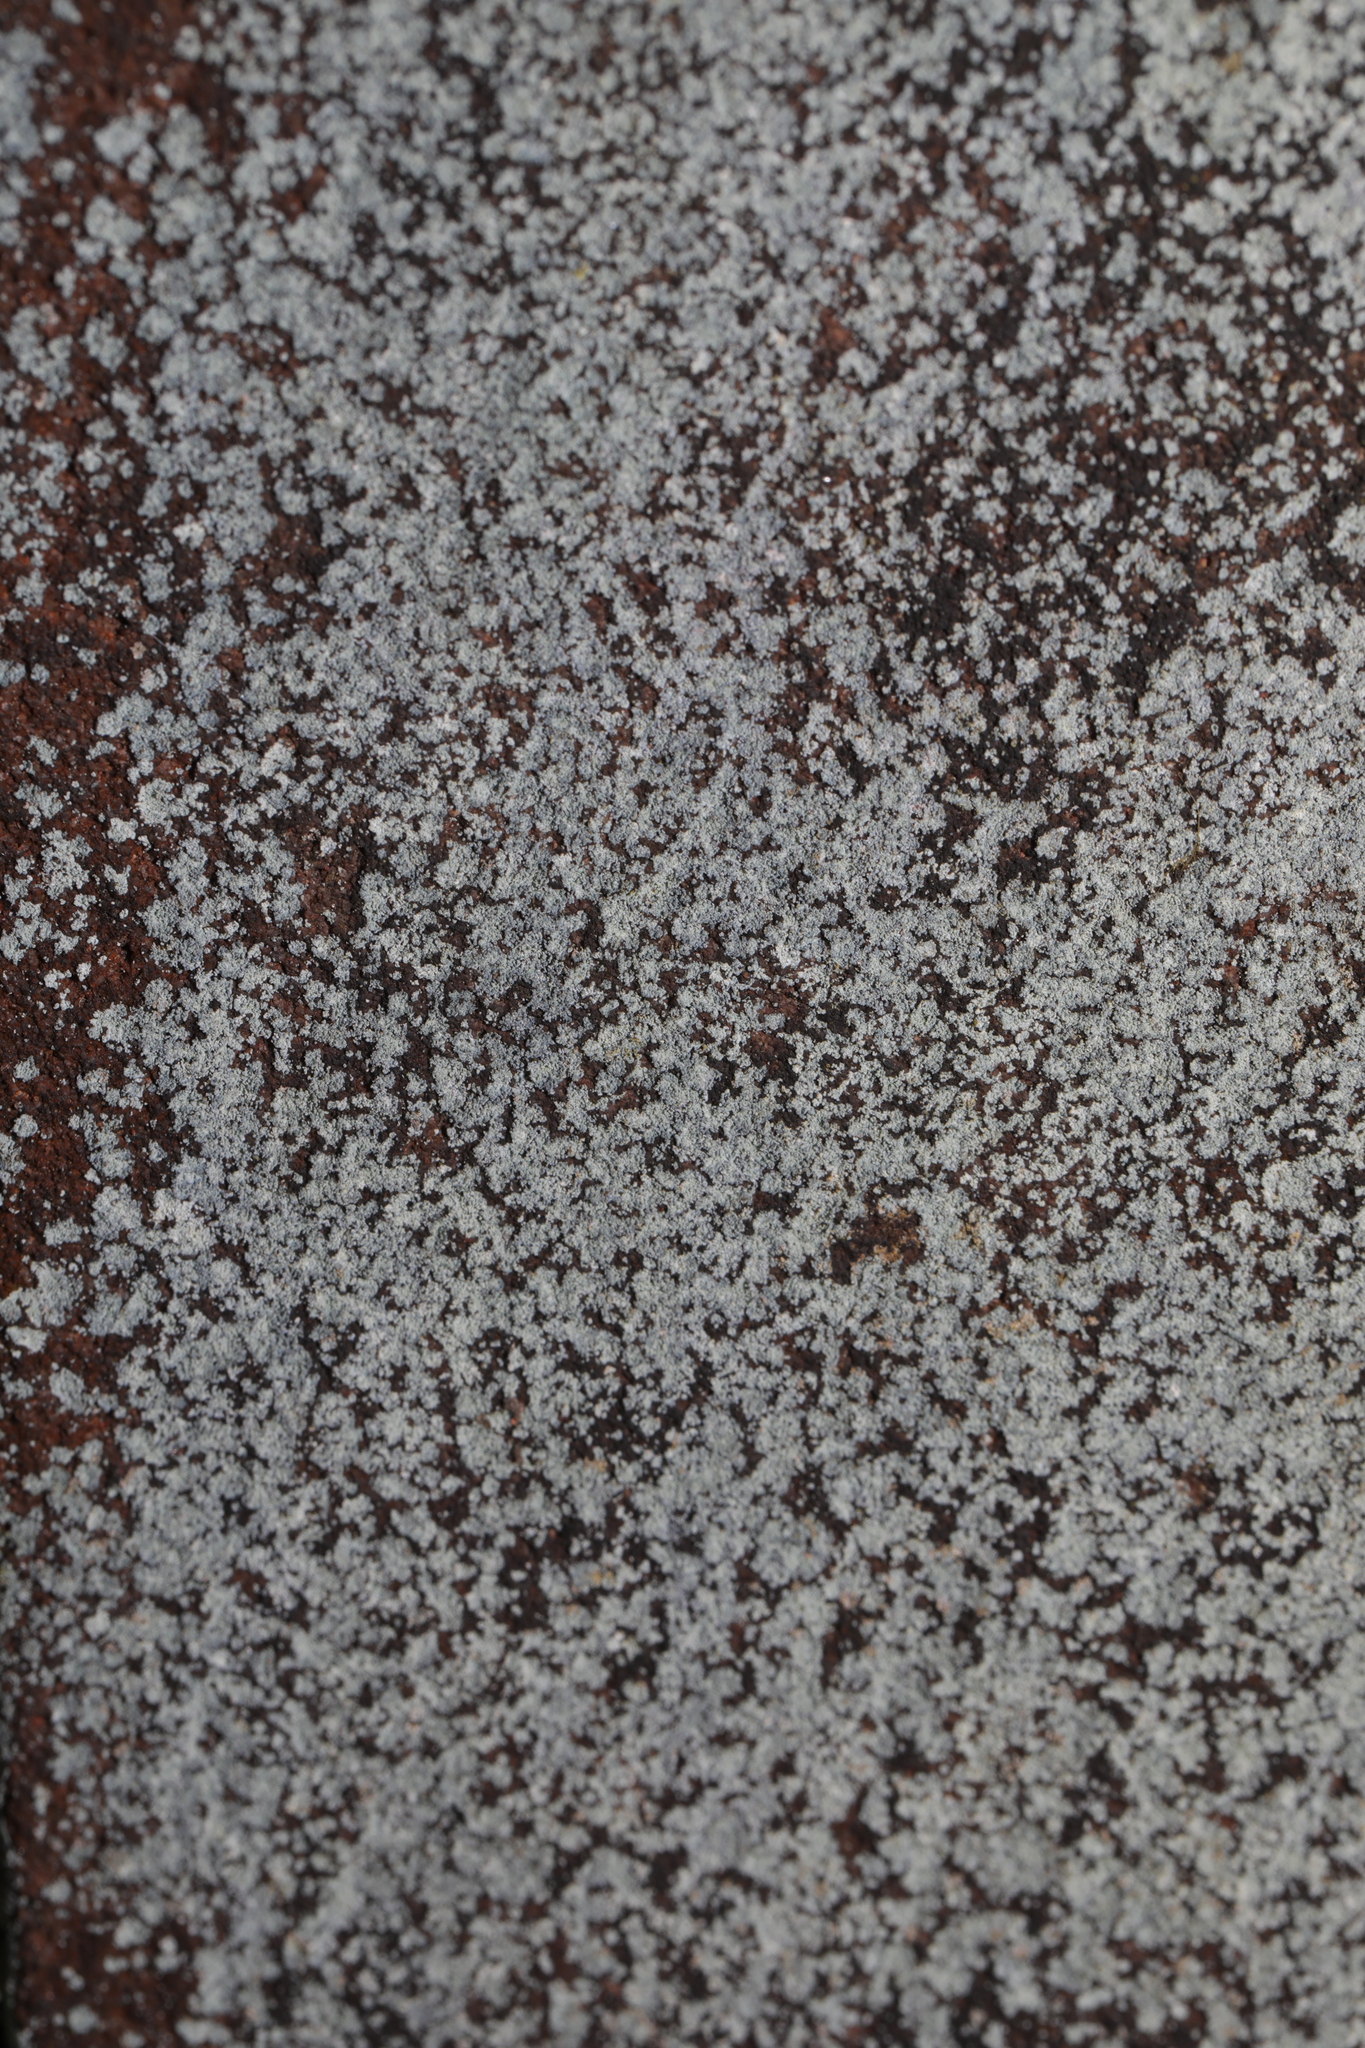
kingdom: Fungi
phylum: Ascomycota
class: Lecanoromycetes
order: Lecanorales
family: Stereocaulaceae
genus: Lepraria
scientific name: Lepraria
